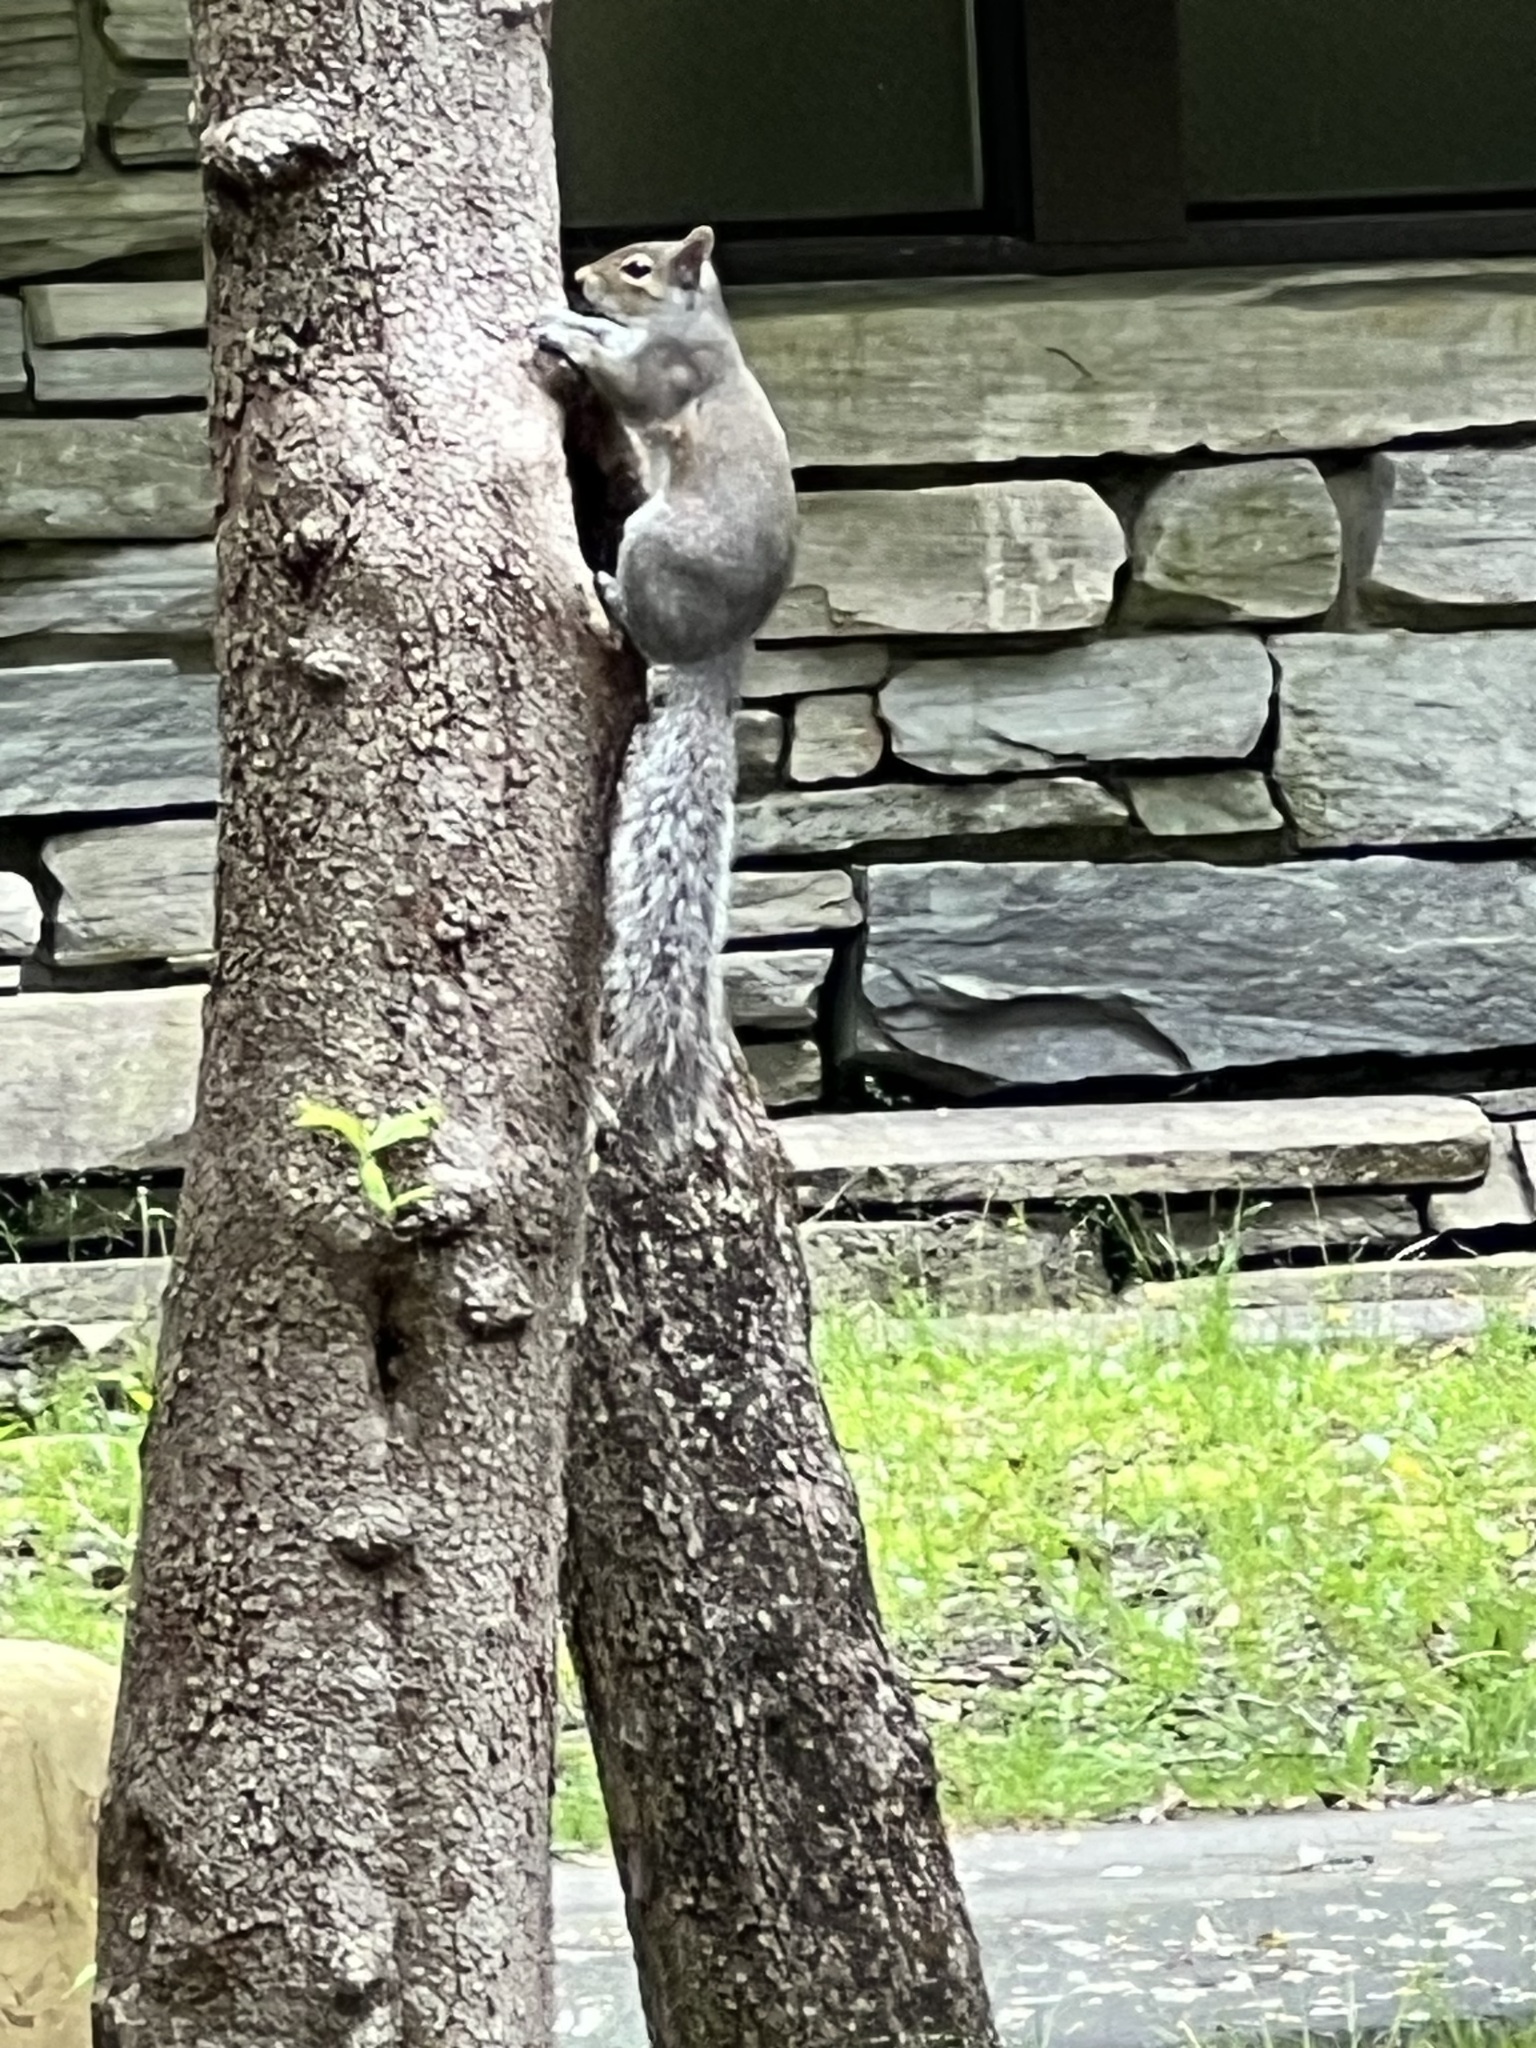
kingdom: Animalia
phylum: Chordata
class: Mammalia
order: Rodentia
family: Sciuridae
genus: Sciurus
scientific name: Sciurus carolinensis
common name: Eastern gray squirrel
